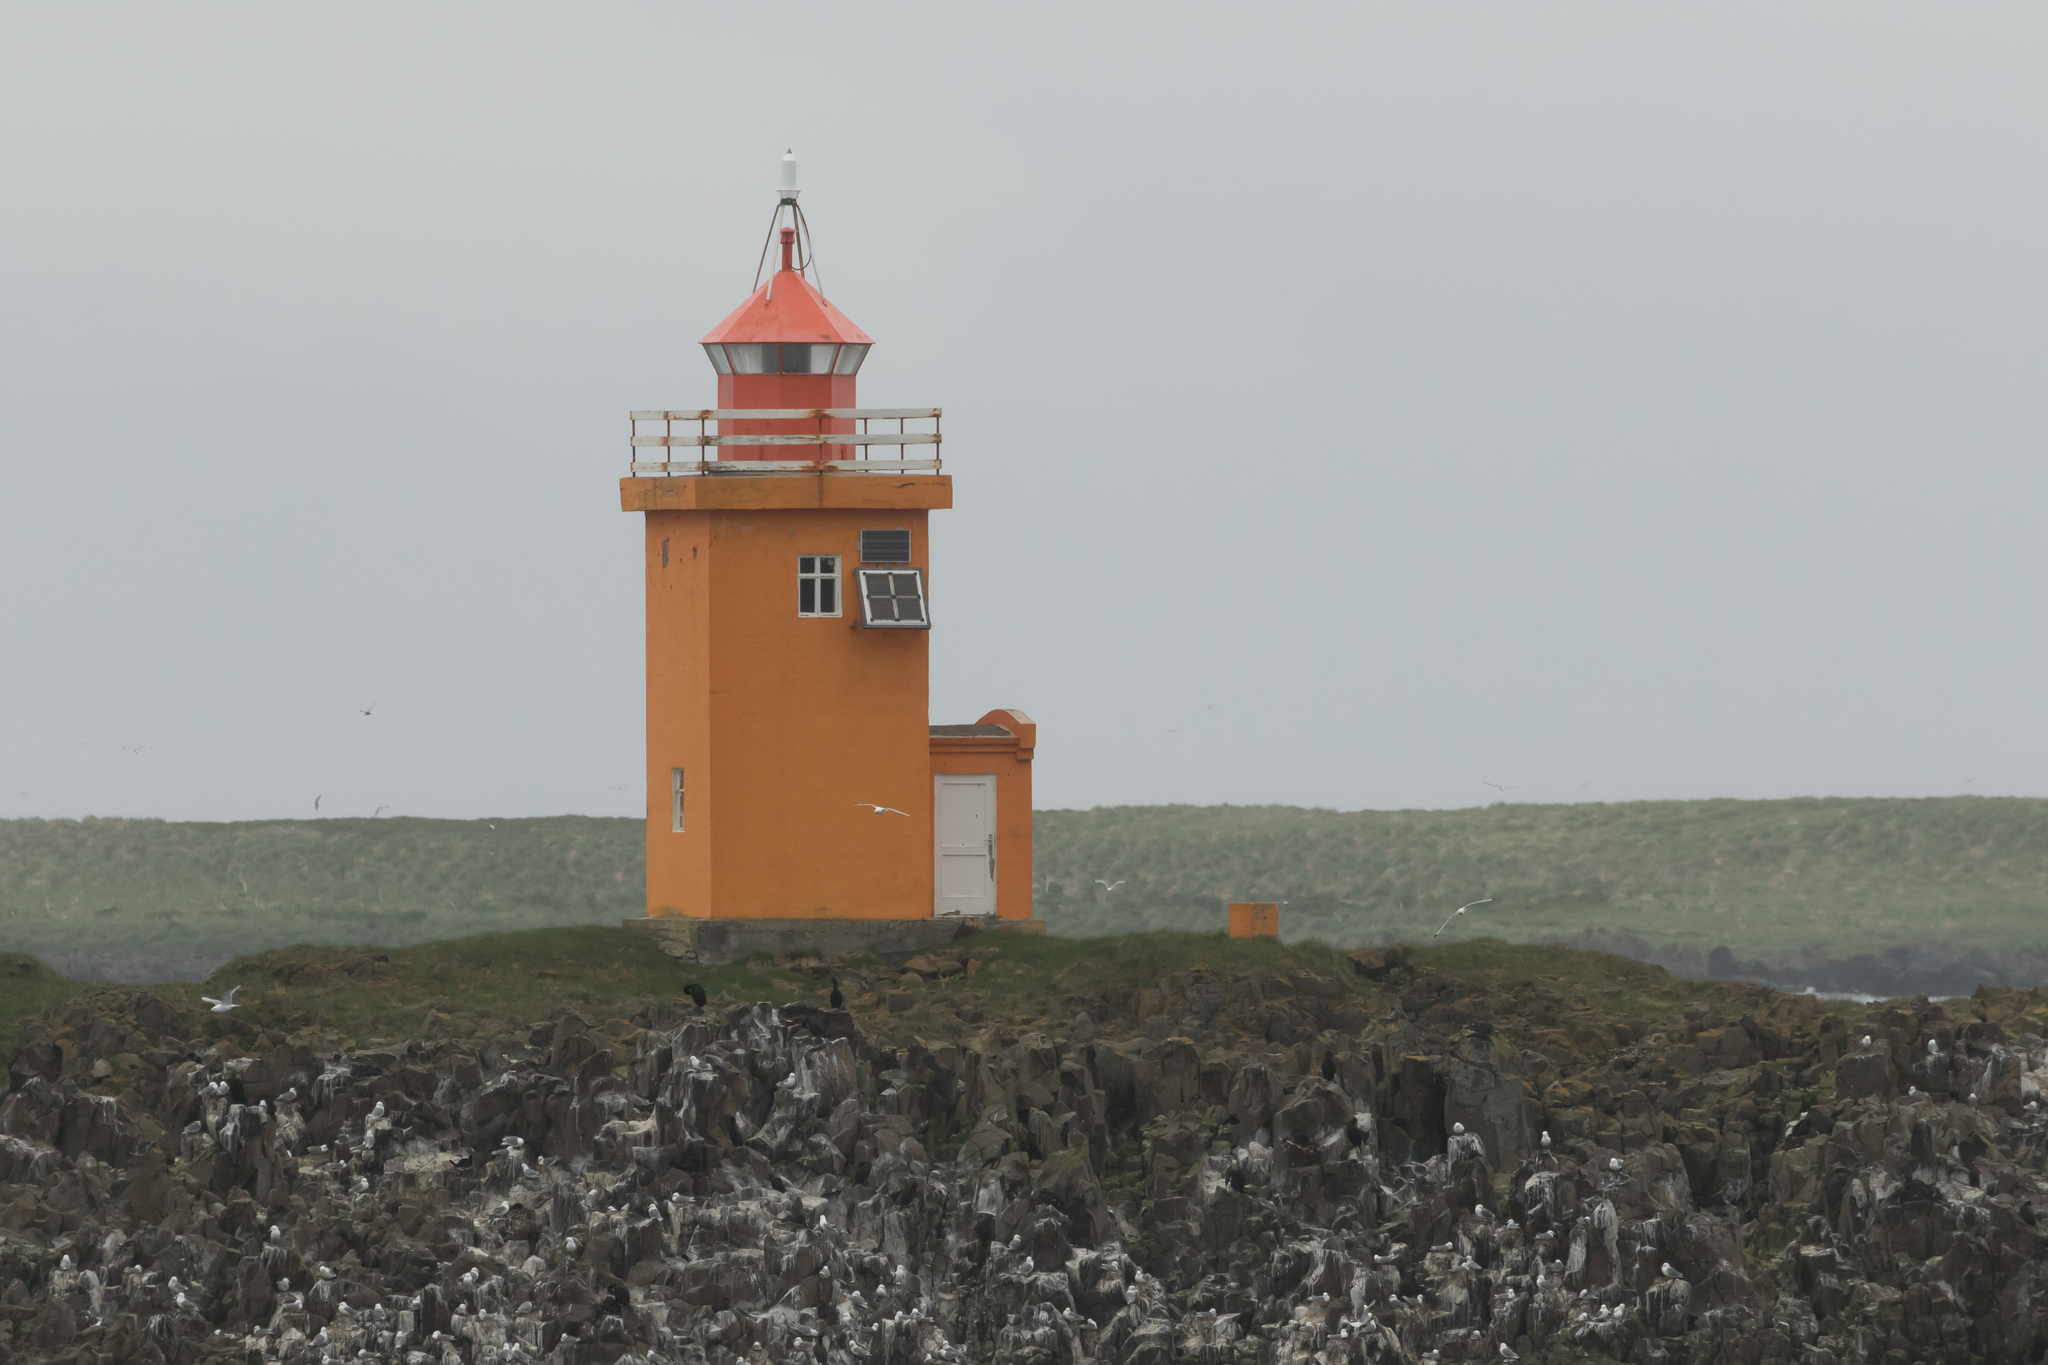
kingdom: Animalia
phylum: Chordata
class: Aves
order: Charadriiformes
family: Laridae
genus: Rissa
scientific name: Rissa tridactyla
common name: Black-legged kittiwake
